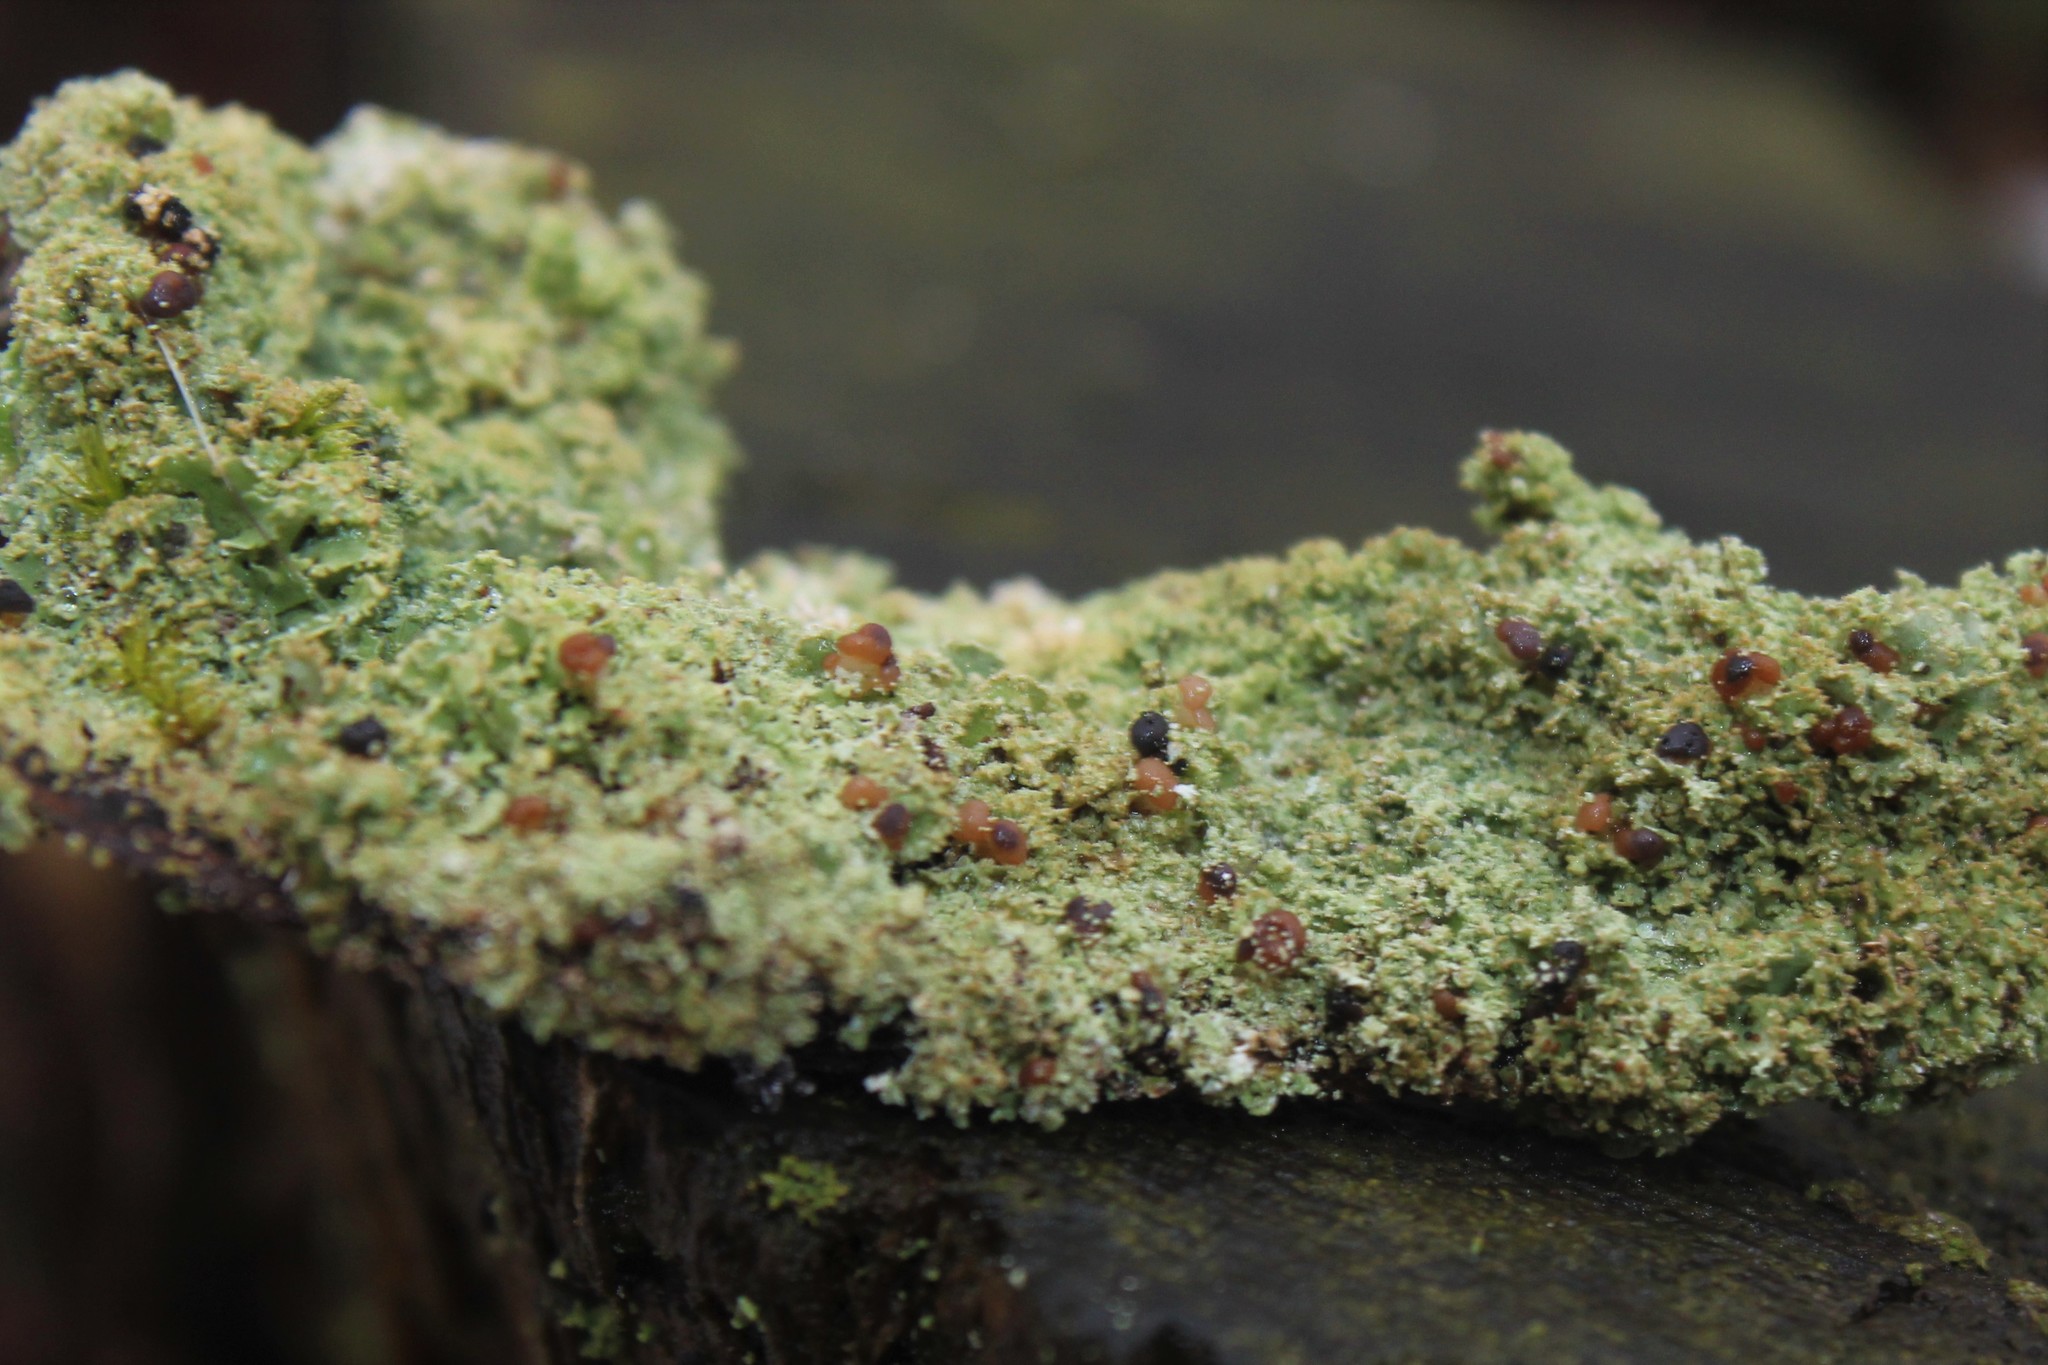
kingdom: Fungi
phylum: Ascomycota
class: Lecanoromycetes
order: Lecanorales
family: Cladoniaceae
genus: Cladonia
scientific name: Cladonia caespiticia
